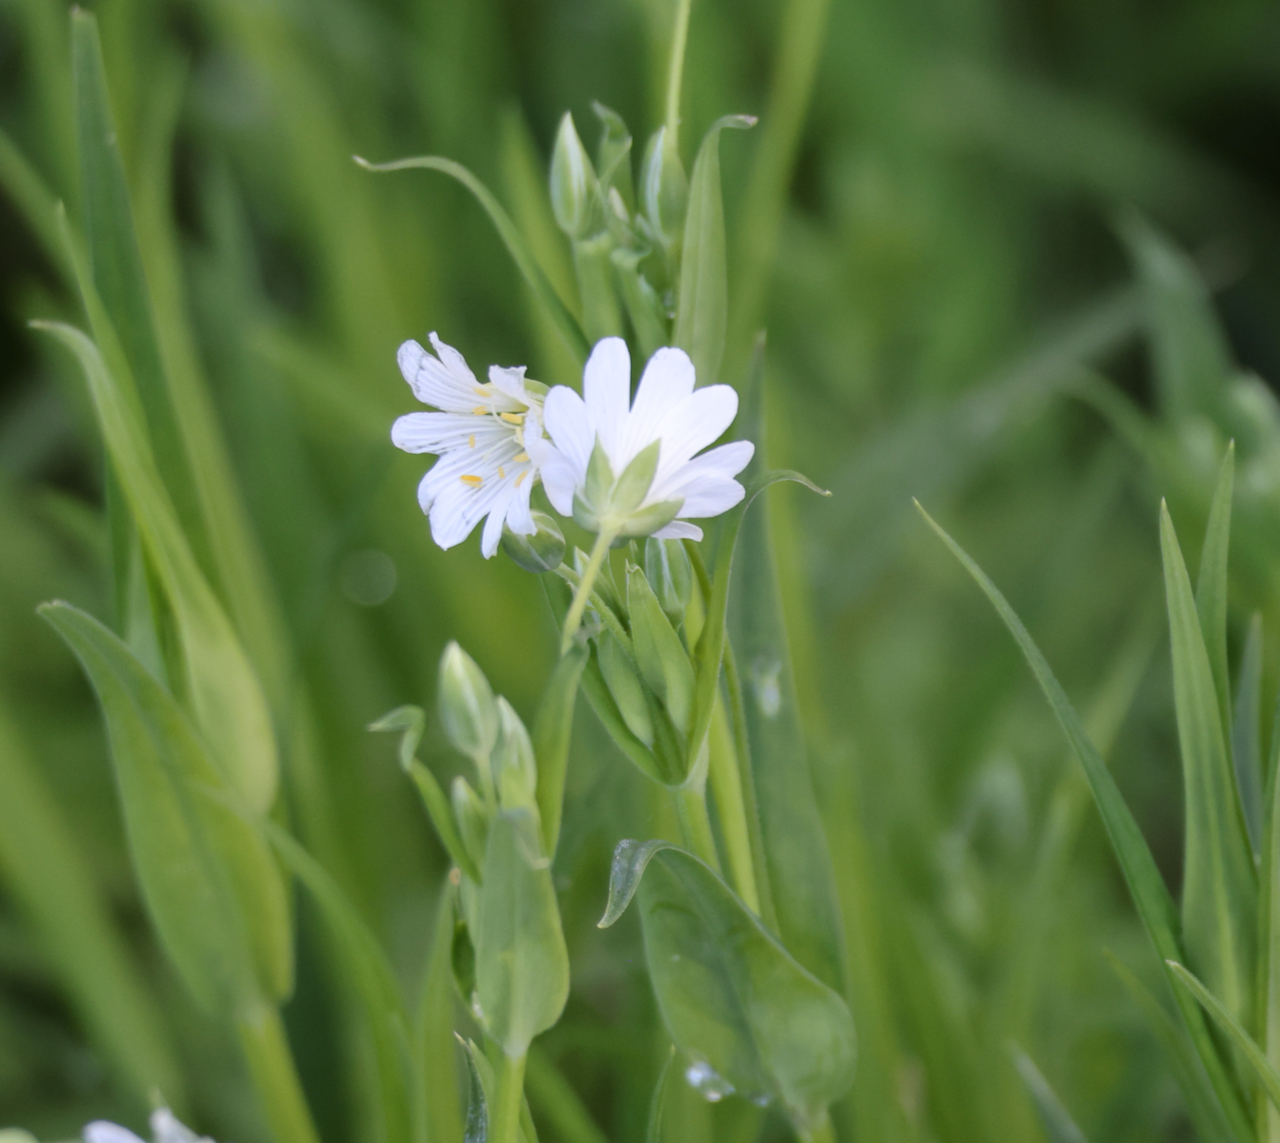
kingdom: Plantae
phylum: Tracheophyta
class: Magnoliopsida
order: Caryophyllales
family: Caryophyllaceae
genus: Rabelera
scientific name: Rabelera holostea
